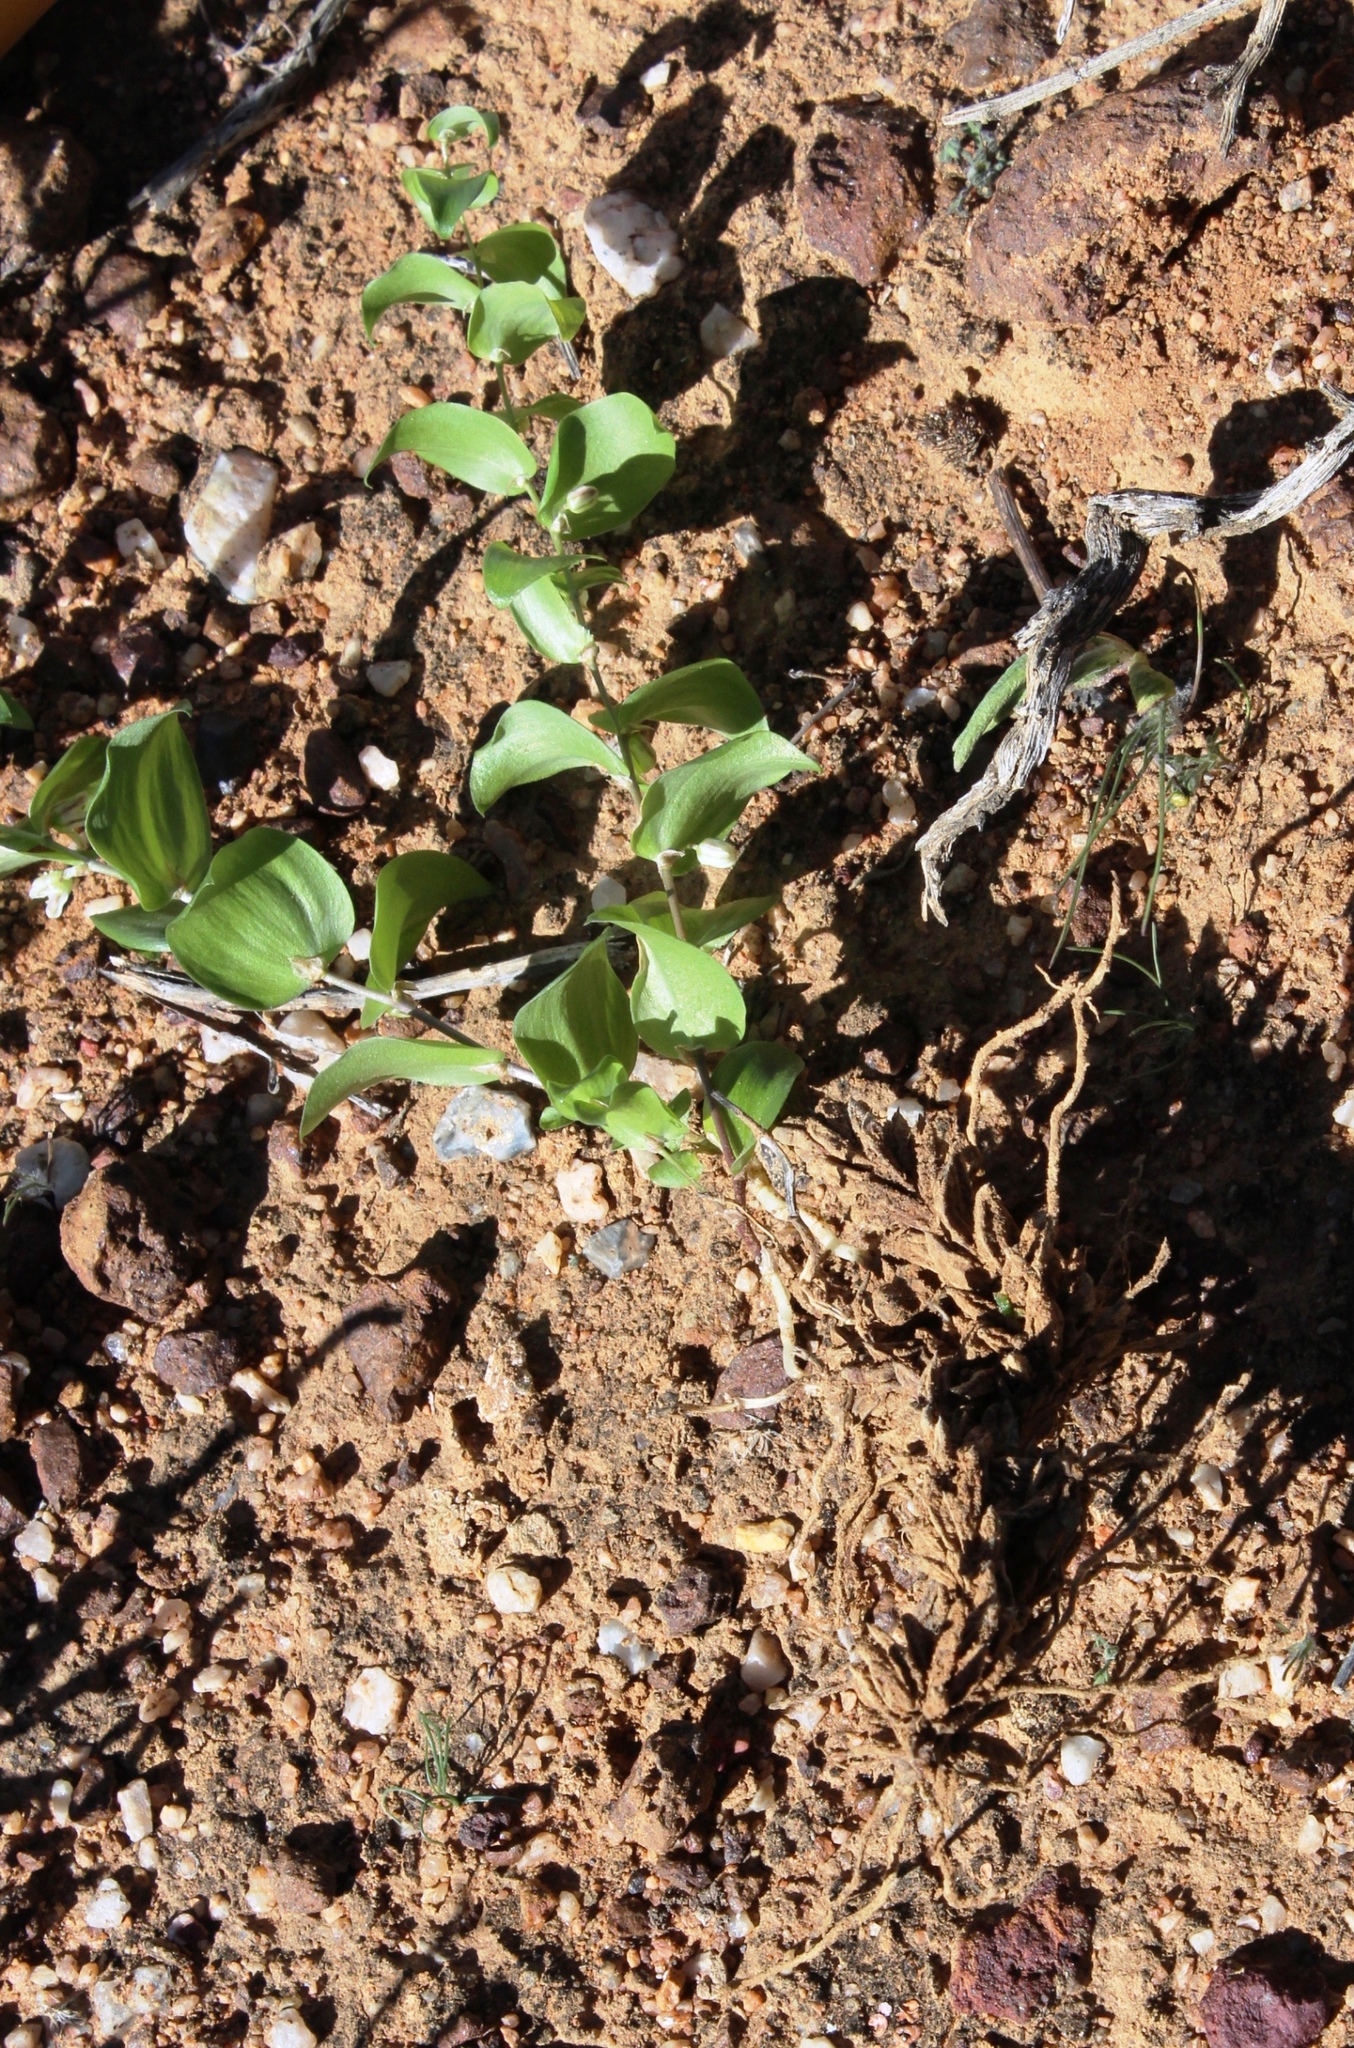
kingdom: Plantae
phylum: Tracheophyta
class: Liliopsida
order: Asparagales
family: Asparagaceae
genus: Asparagus
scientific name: Asparagus asparagoides
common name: African asparagus fern
